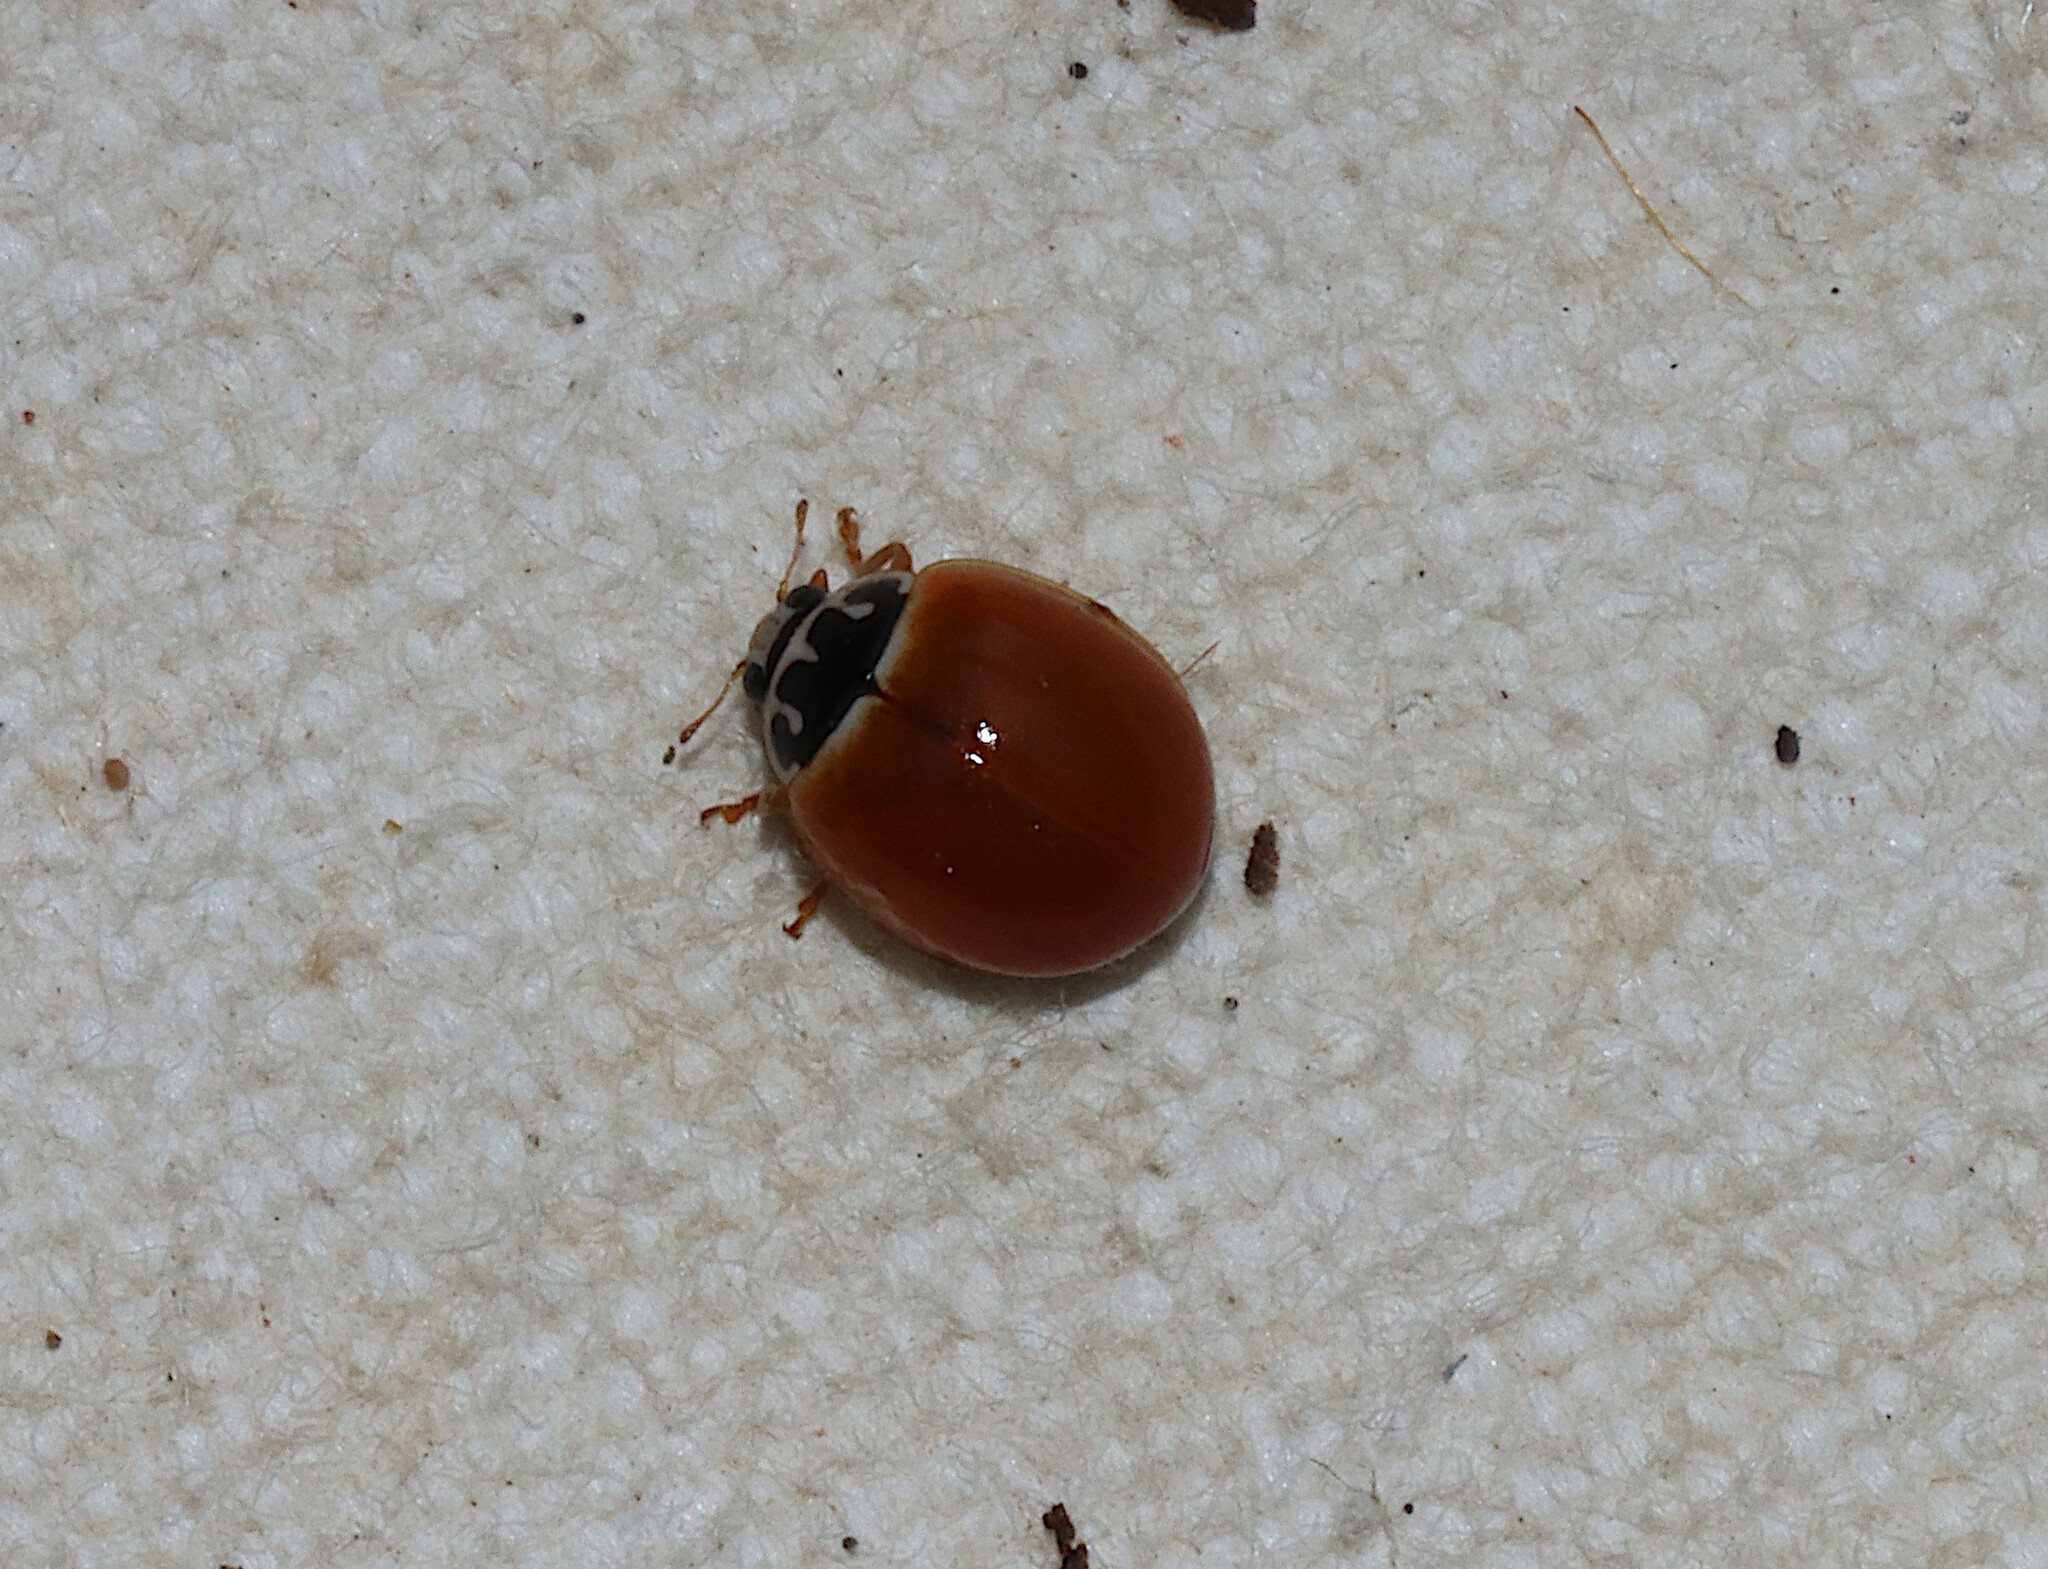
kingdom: Animalia
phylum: Arthropoda
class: Insecta
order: Coleoptera
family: Coccinellidae
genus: Cycloneda
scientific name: Cycloneda munda
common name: Polished lady beetle
